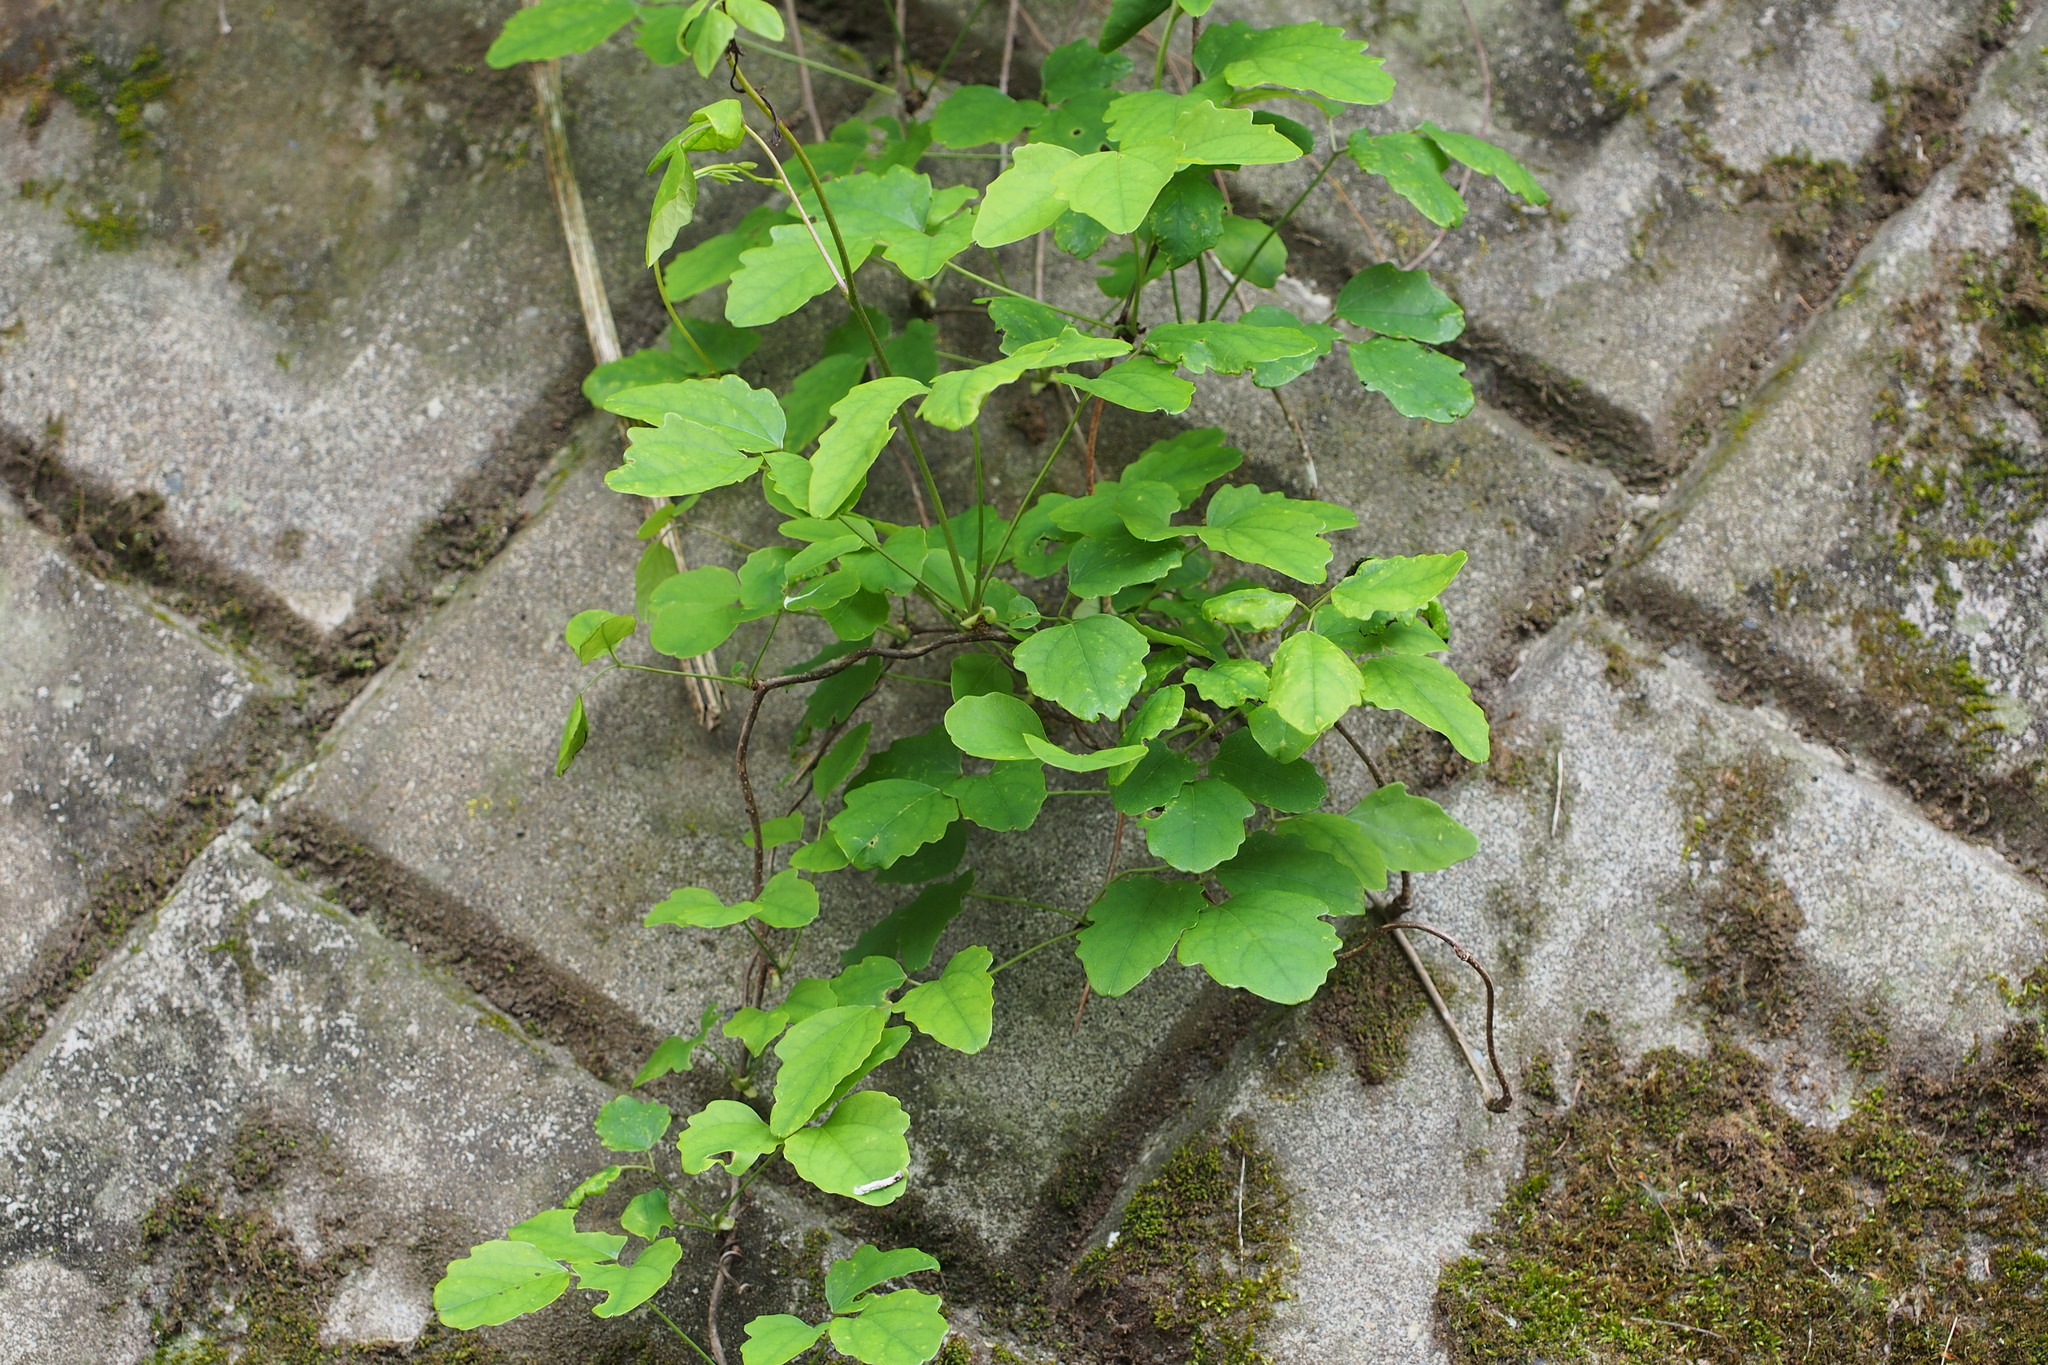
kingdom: Plantae
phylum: Tracheophyta
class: Magnoliopsida
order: Ranunculales
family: Lardizabalaceae
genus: Akebia
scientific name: Akebia trifoliata
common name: Chocolate-vine
